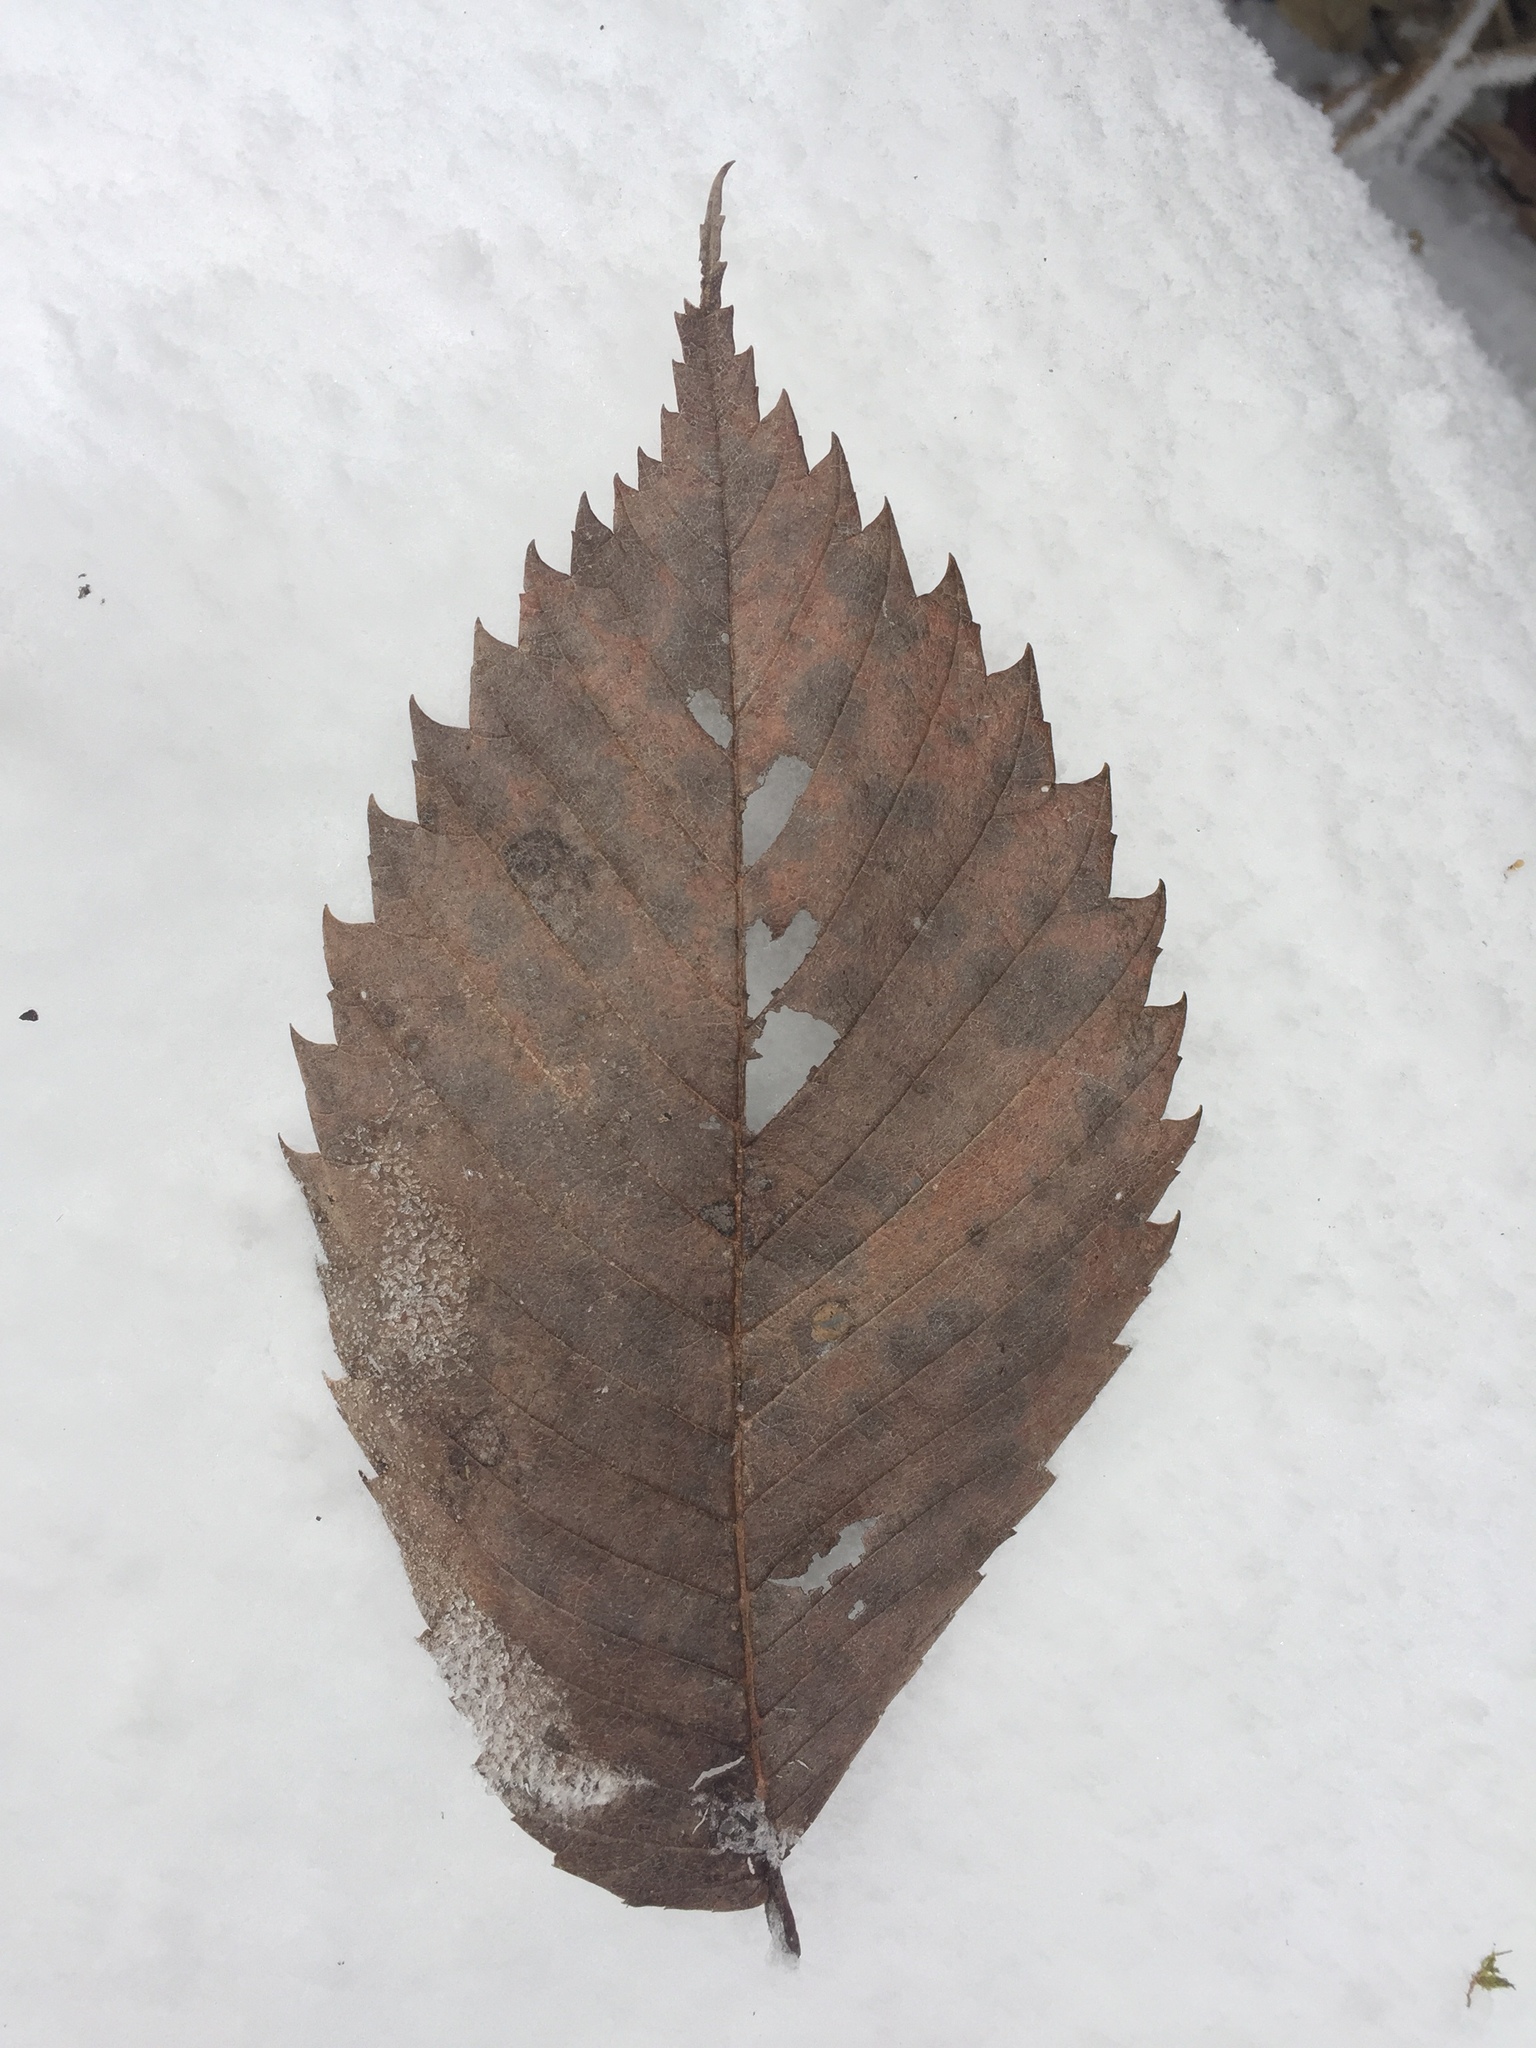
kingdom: Plantae
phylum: Tracheophyta
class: Magnoliopsida
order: Rosales
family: Ulmaceae
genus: Ulmus
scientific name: Ulmus americana
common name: American elm
